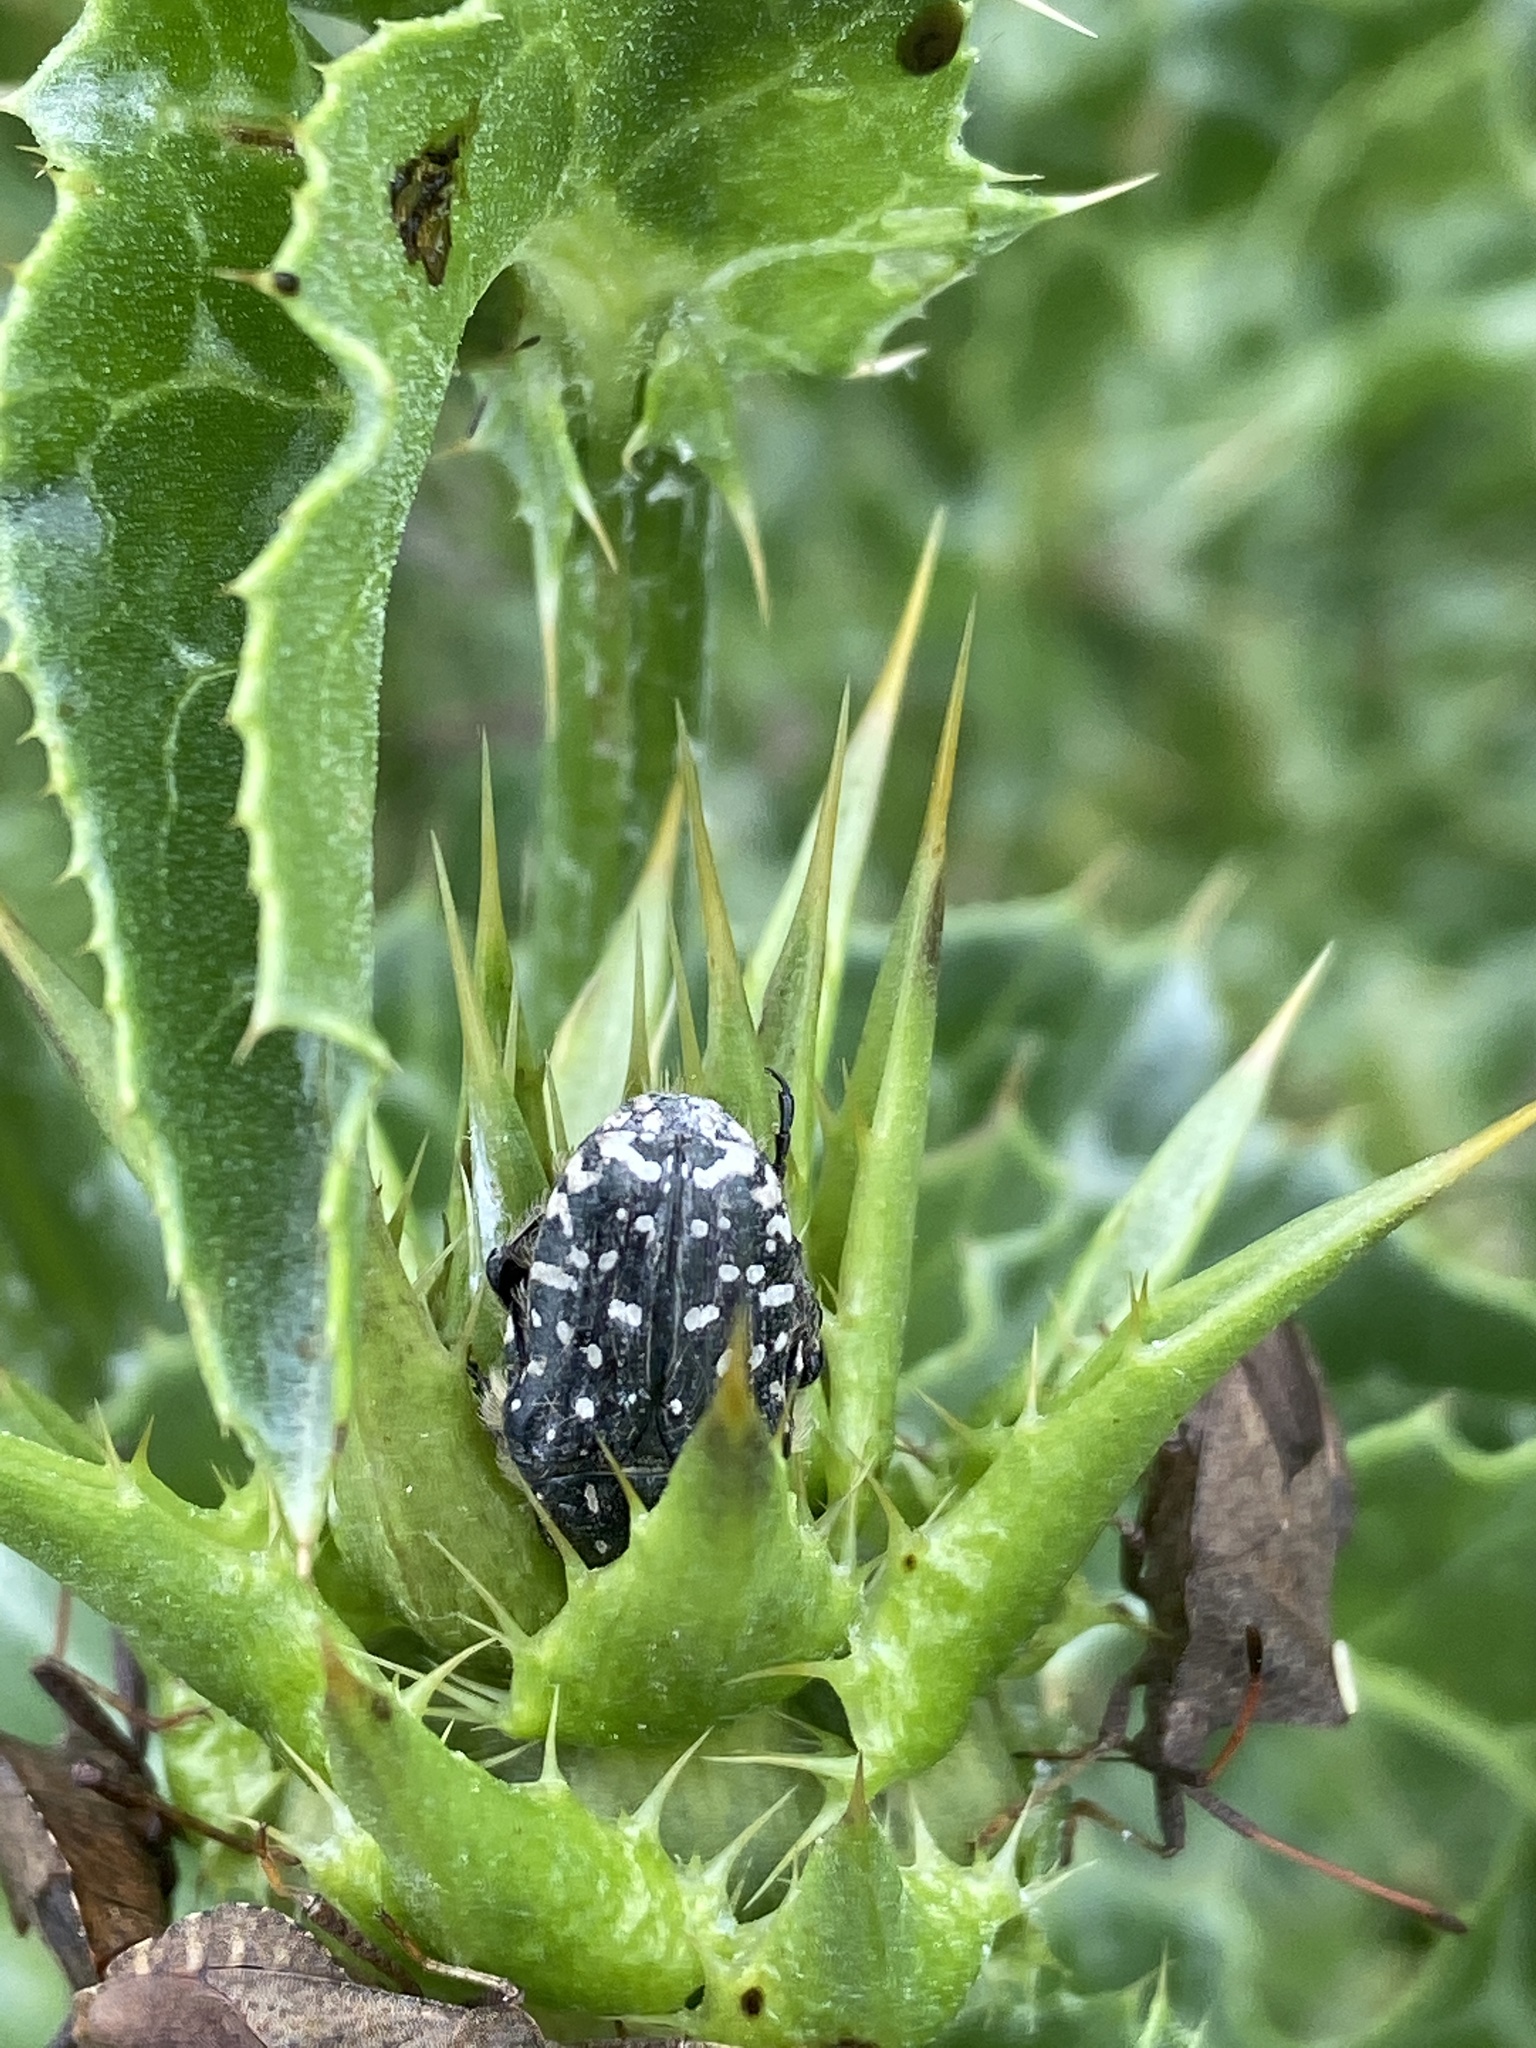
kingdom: Animalia
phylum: Arthropoda
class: Insecta
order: Coleoptera
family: Scarabaeidae
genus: Oxythyrea
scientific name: Oxythyrea funesta
